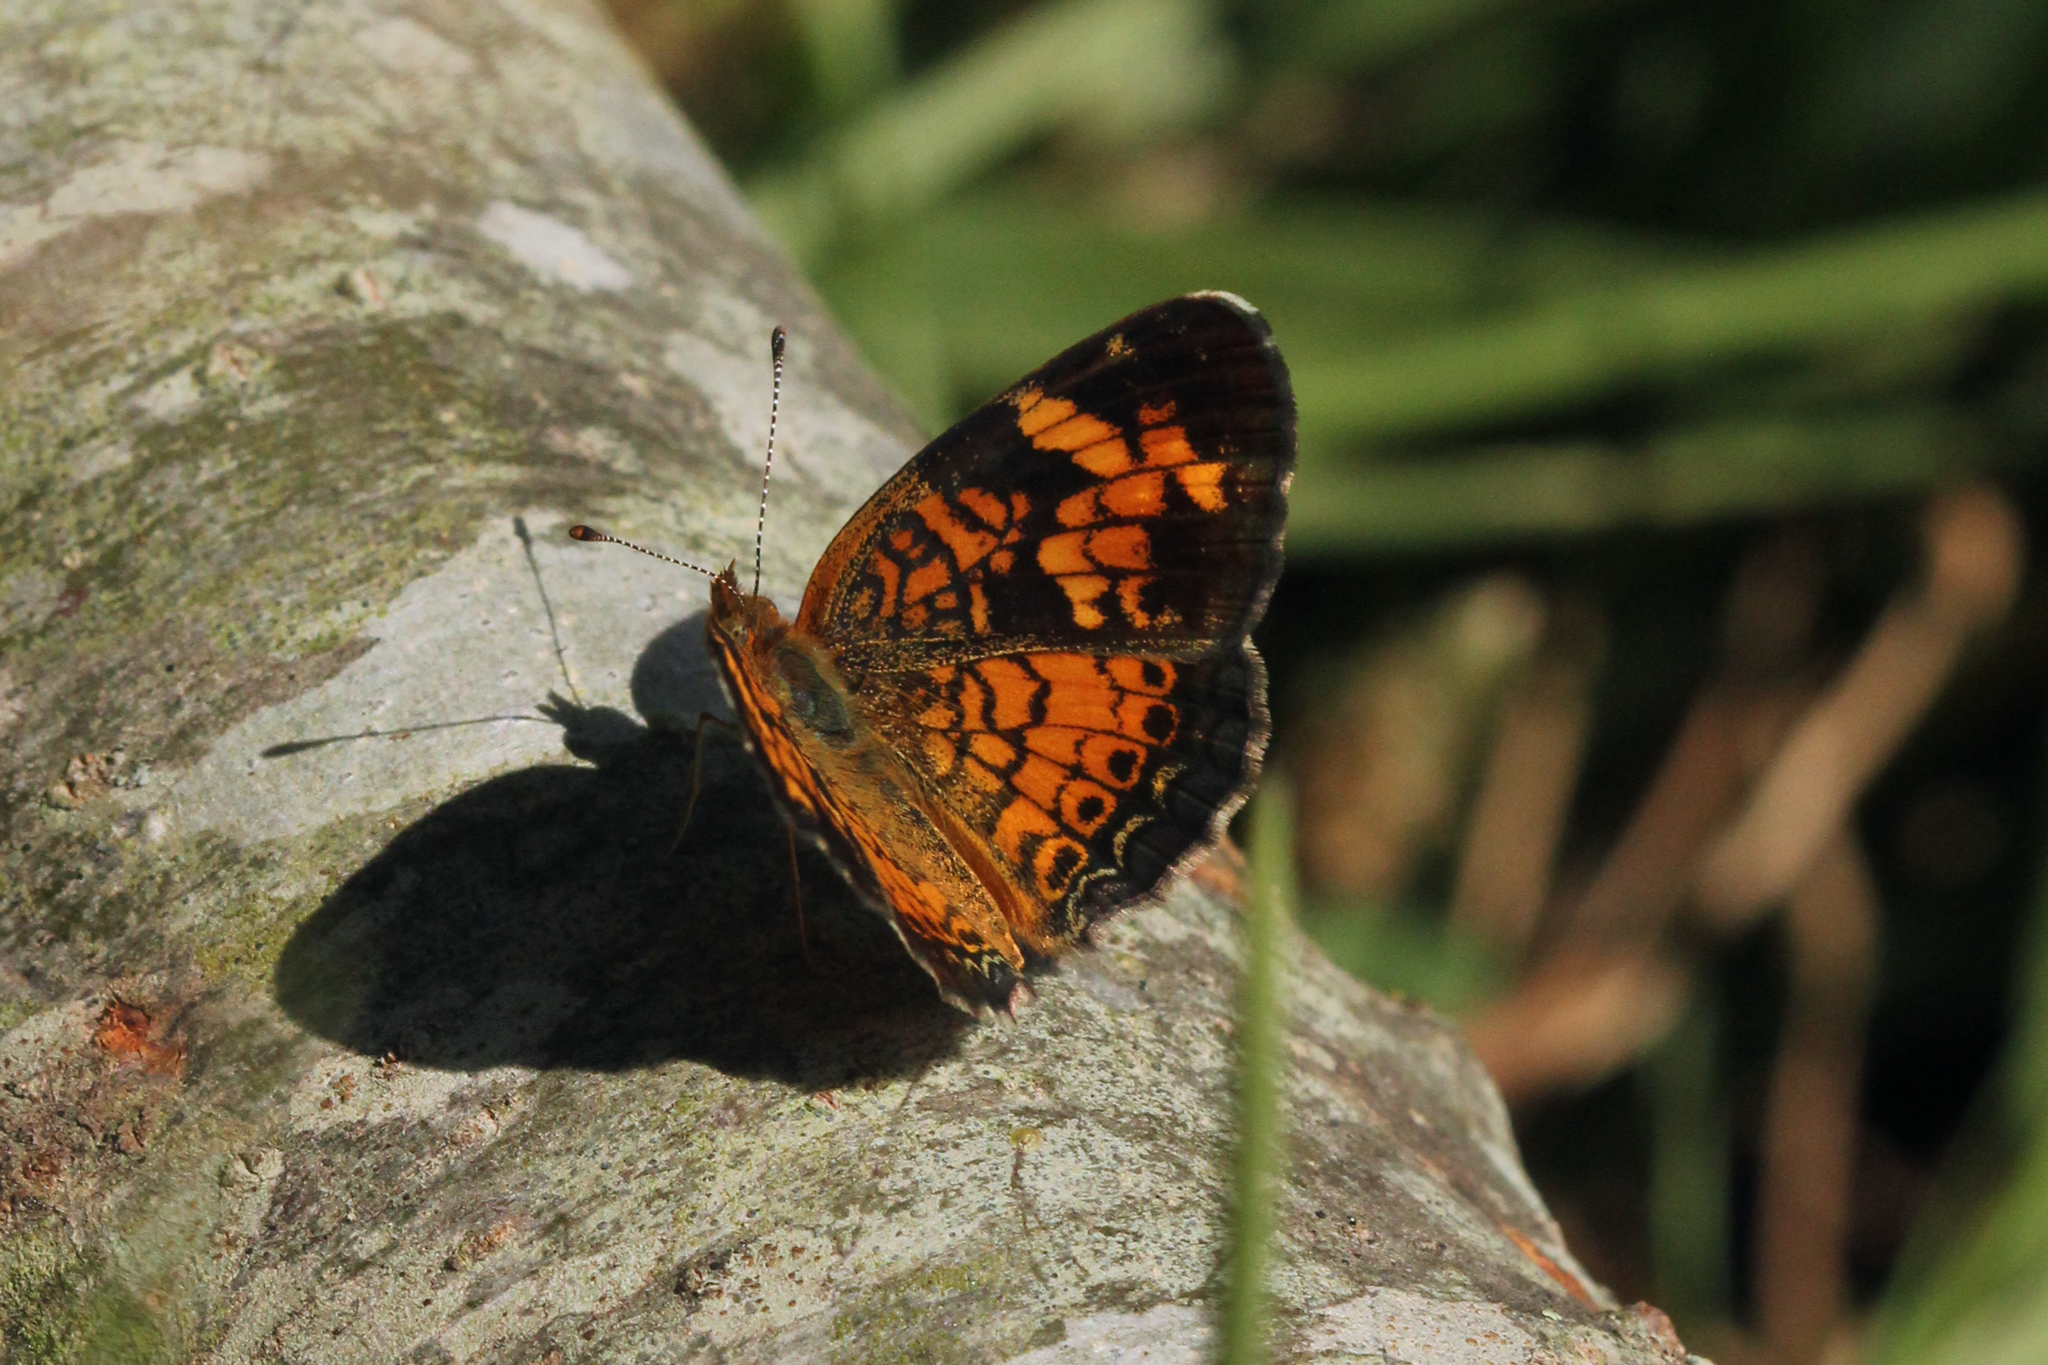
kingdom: Animalia
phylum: Arthropoda
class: Insecta
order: Lepidoptera
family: Nymphalidae
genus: Phyciodes
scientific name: Phyciodes tharos
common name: Pearl crescent
